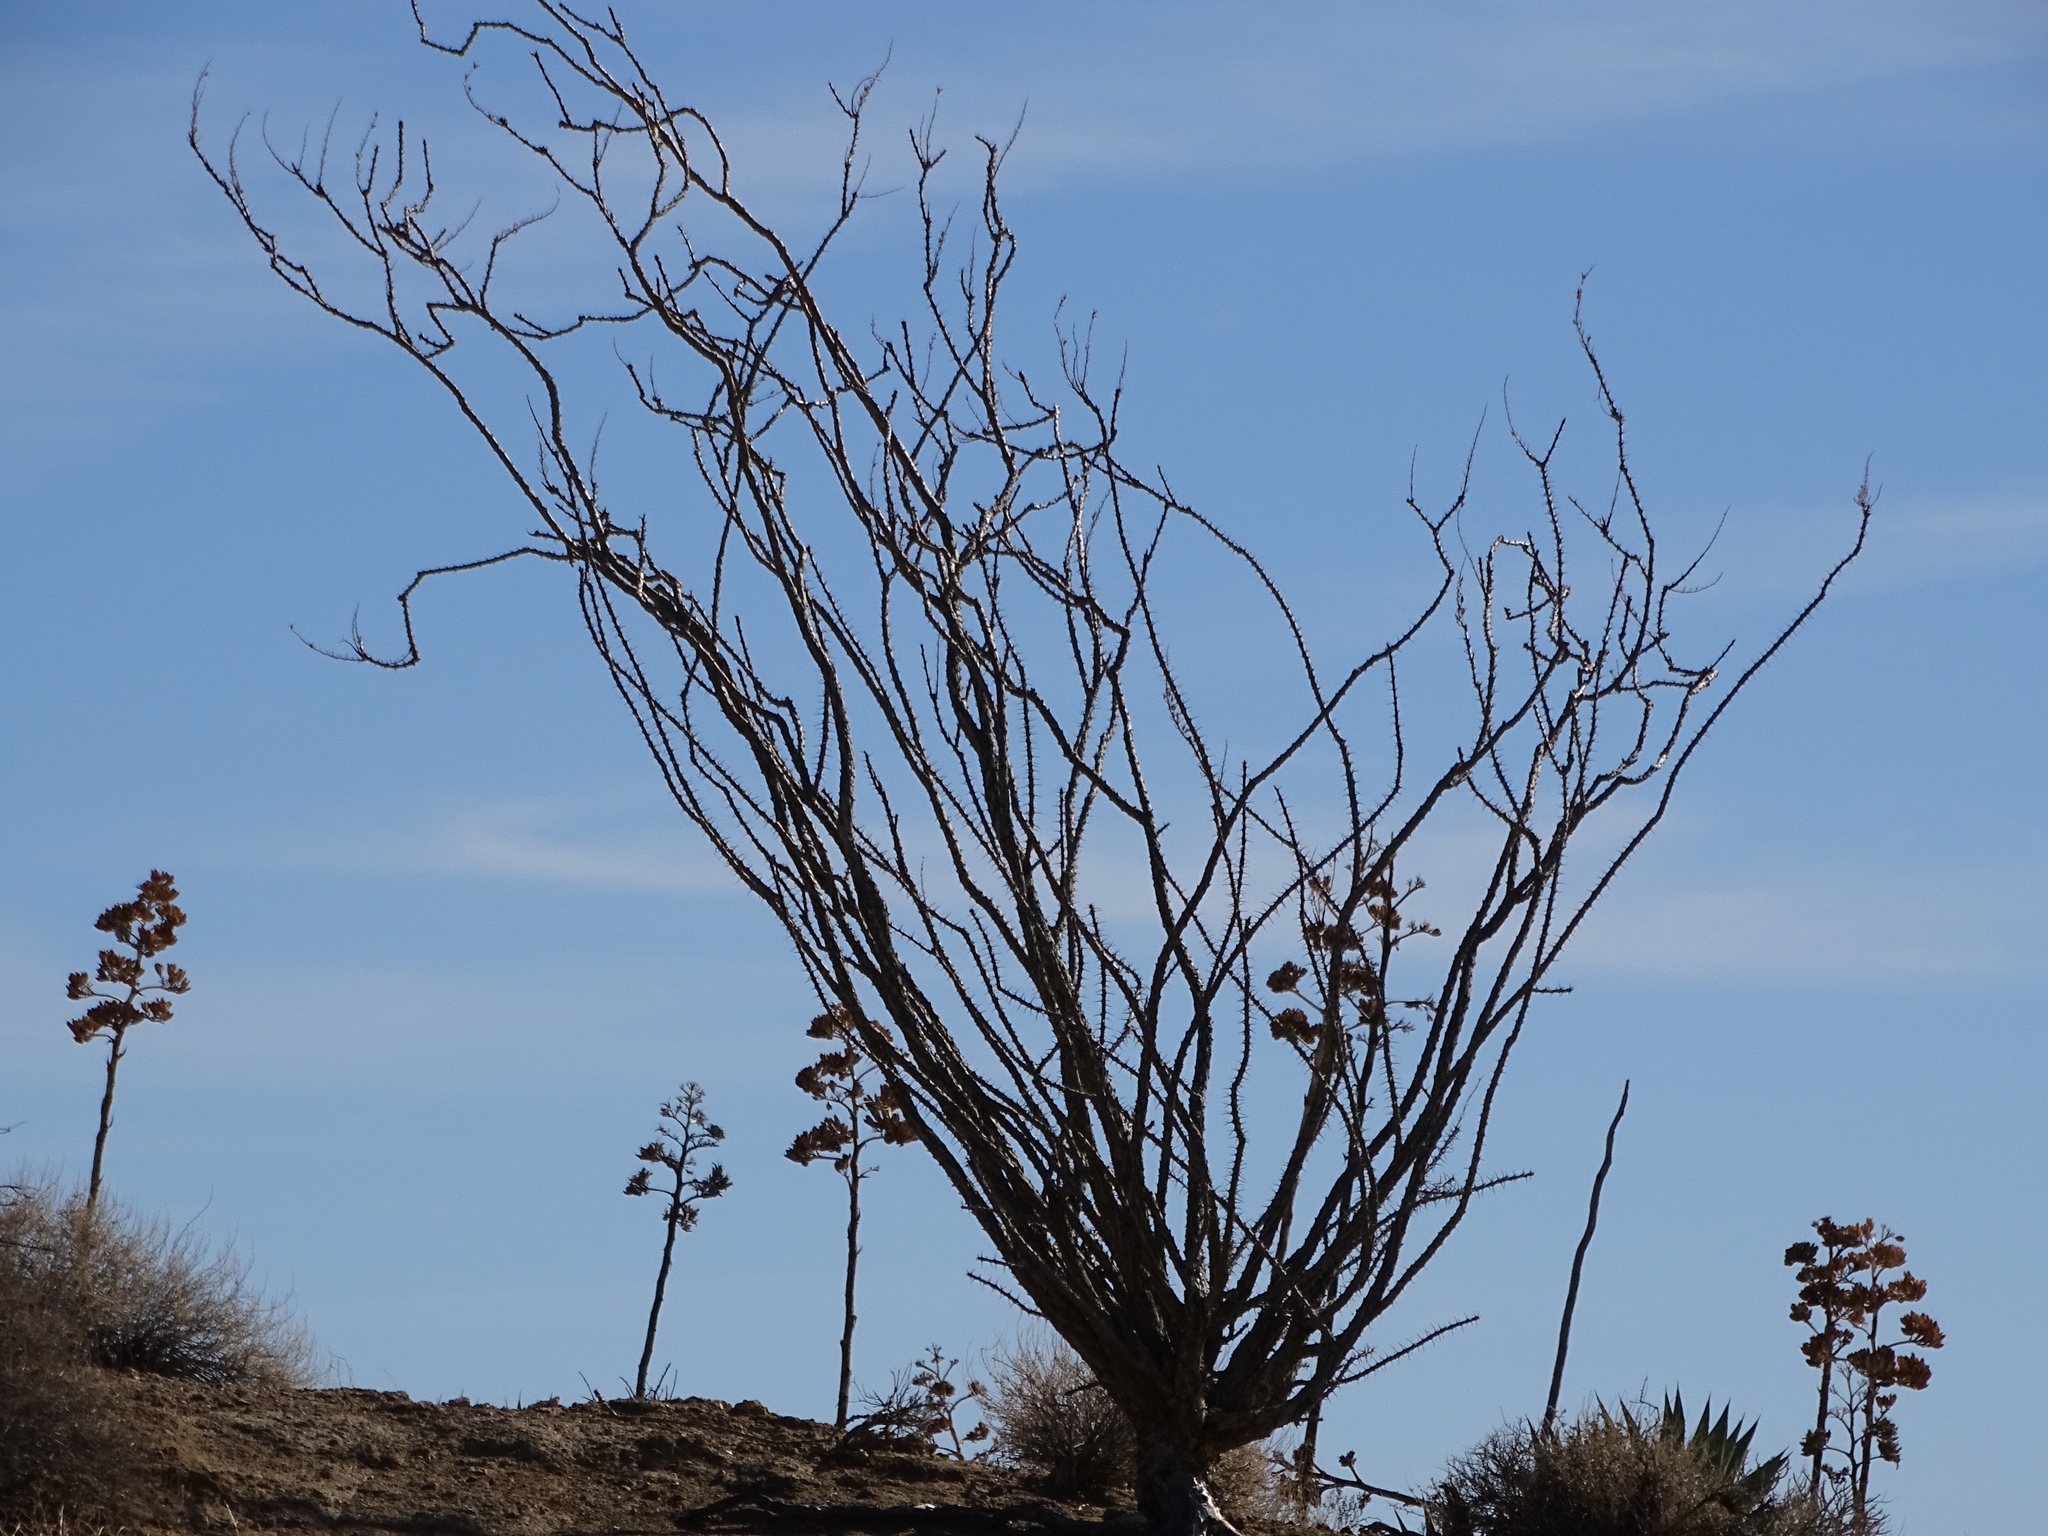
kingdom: Plantae
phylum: Tracheophyta
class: Magnoliopsida
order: Ericales
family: Fouquieriaceae
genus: Fouquieria
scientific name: Fouquieria splendens
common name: Vine-cactus
